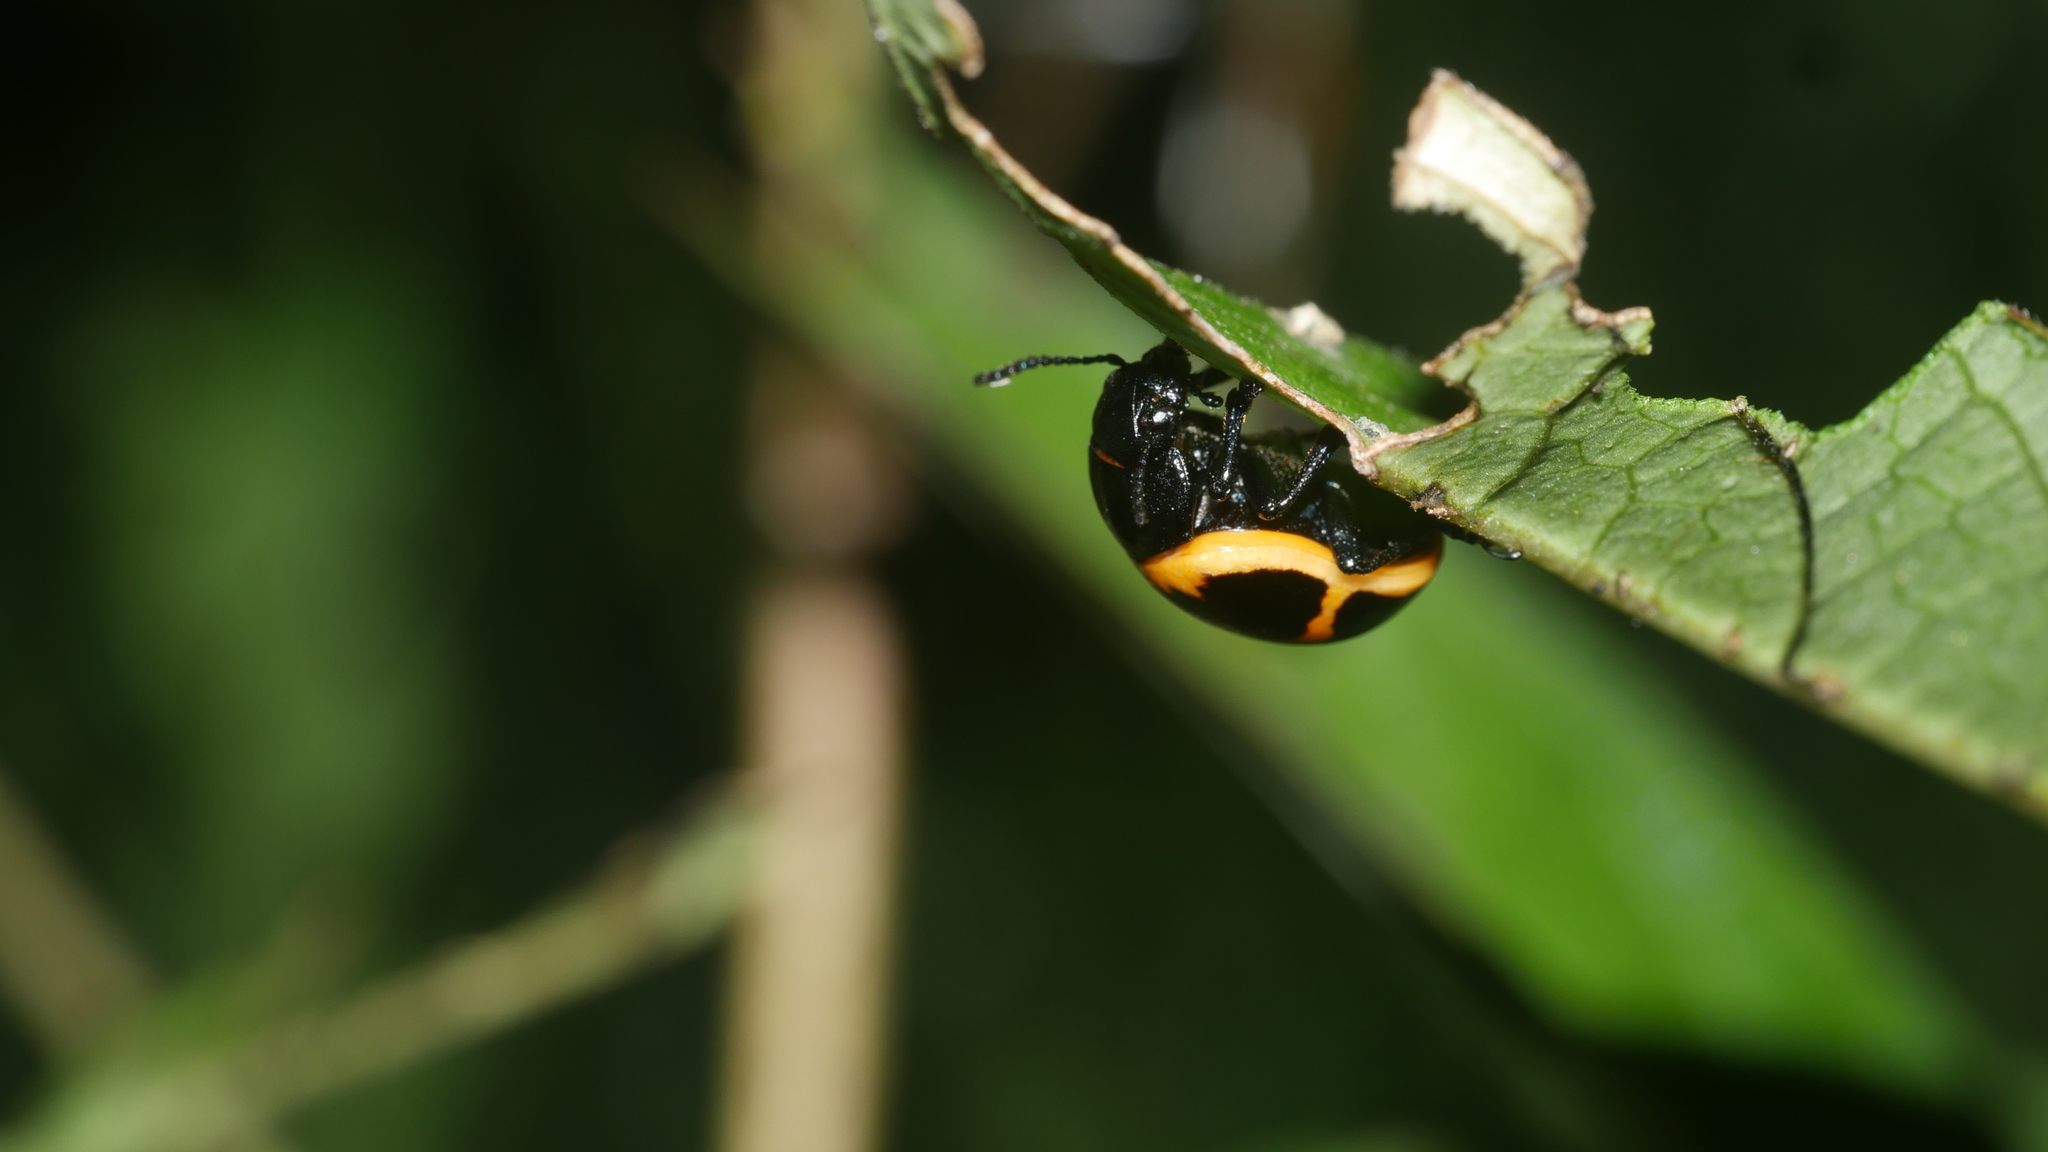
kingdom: Animalia
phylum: Arthropoda
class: Insecta
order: Coleoptera
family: Chrysomelidae
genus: Labidomera
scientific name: Labidomera clivicollis
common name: Swamp milkweed leaf beetle
